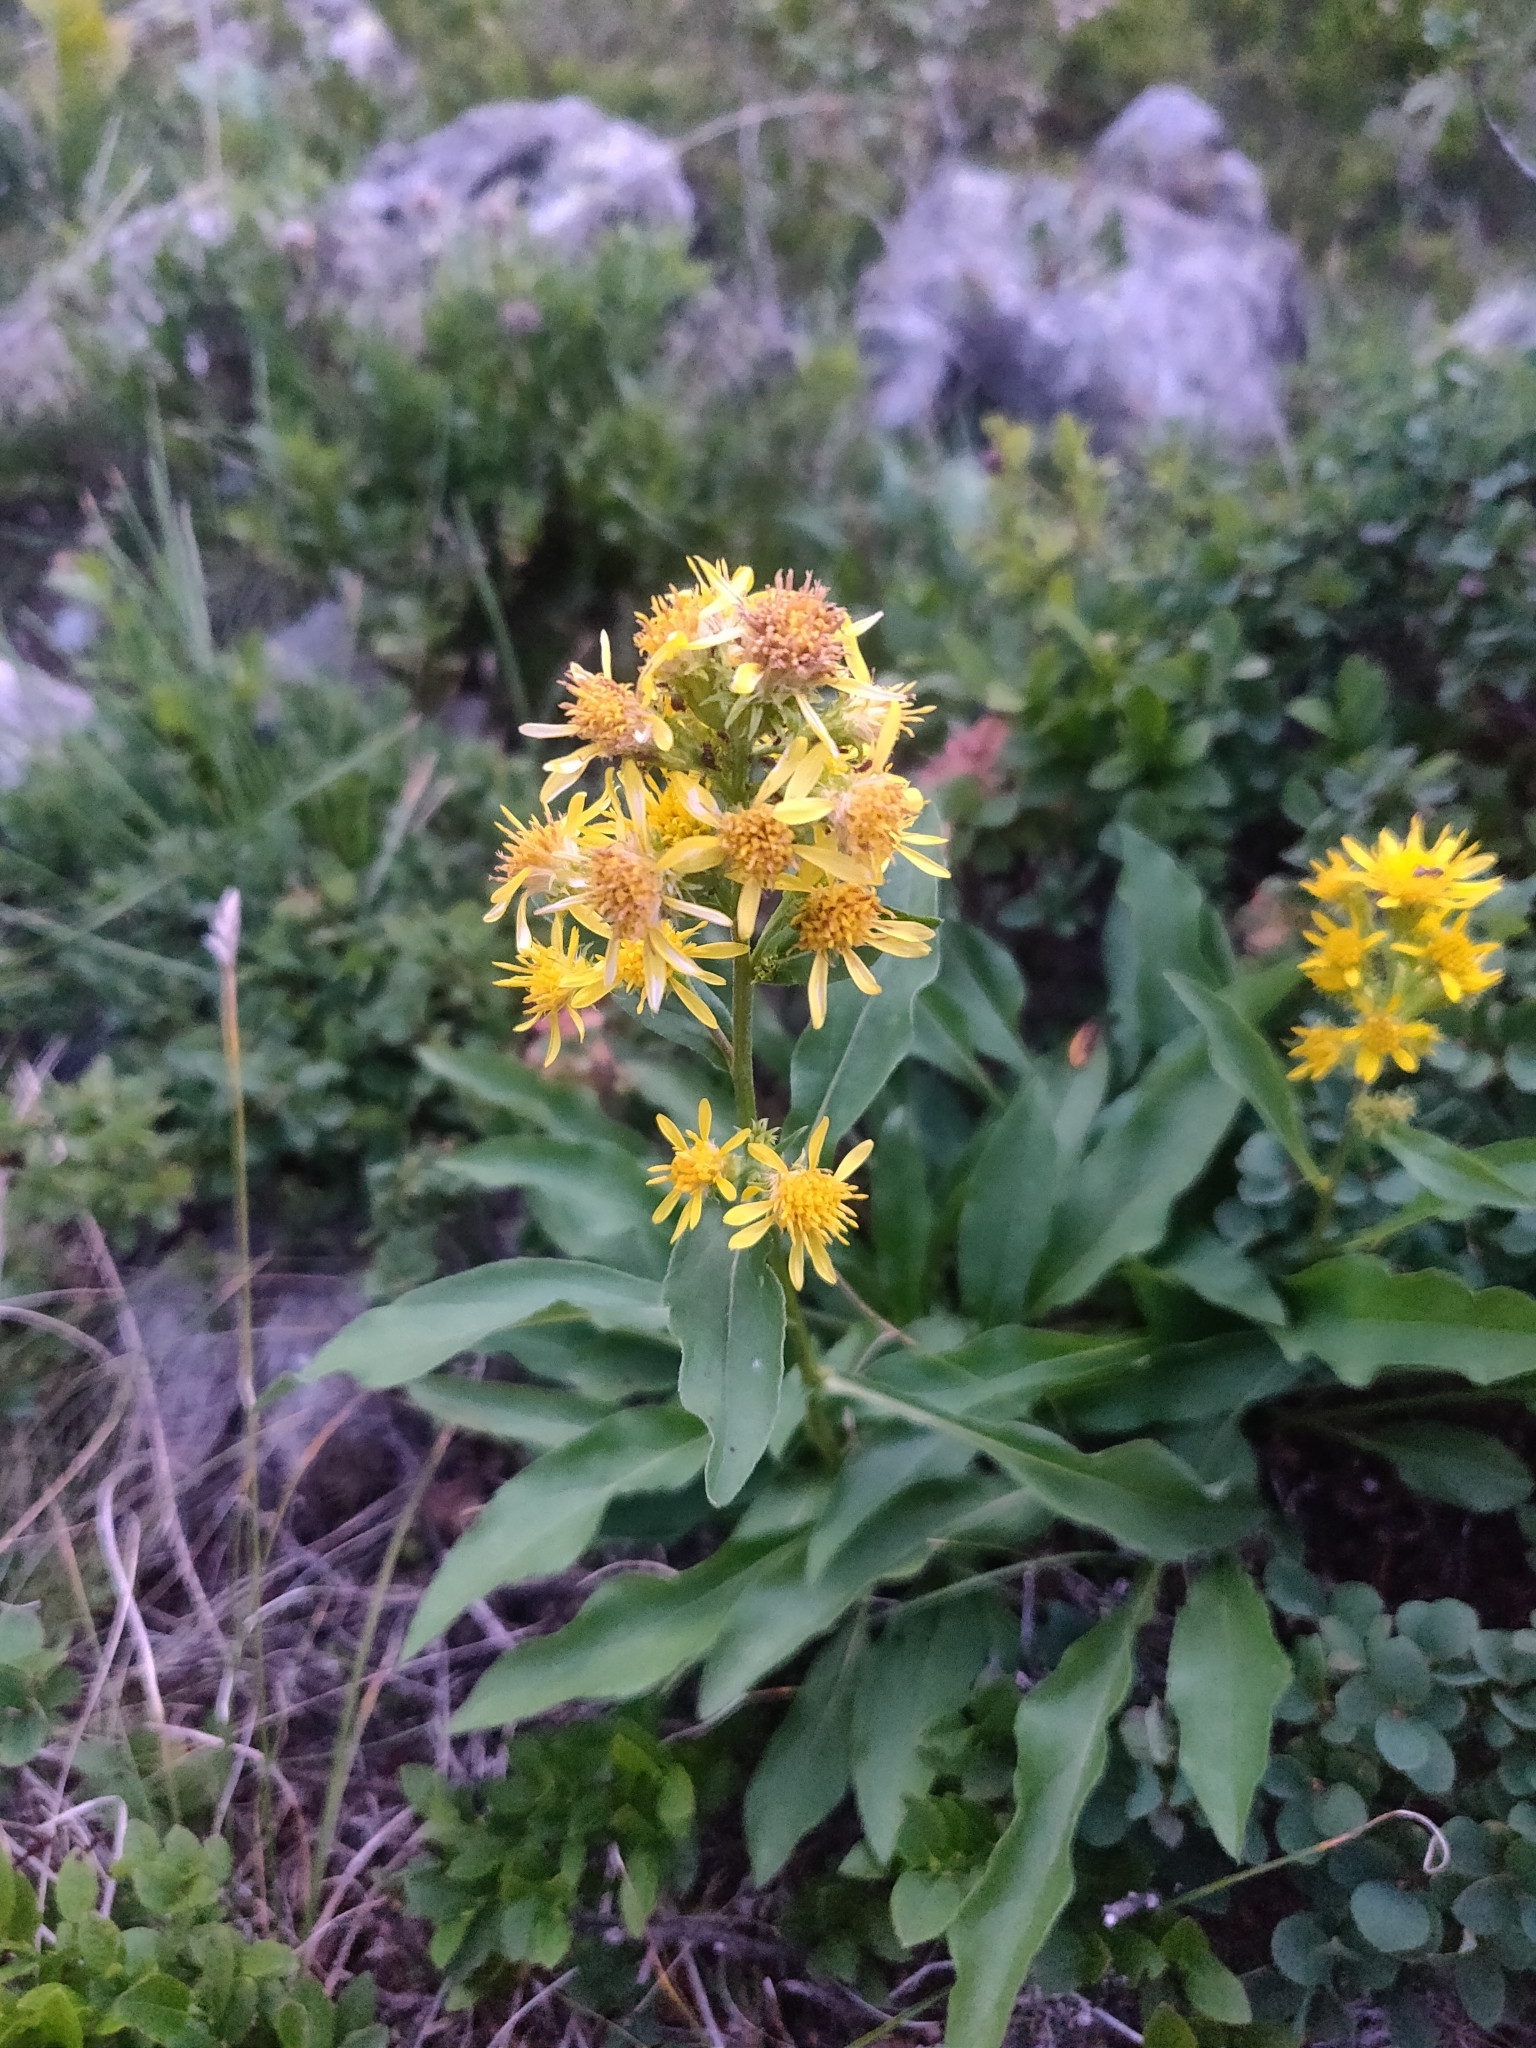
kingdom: Plantae
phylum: Tracheophyta
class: Magnoliopsida
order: Asterales
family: Asteraceae
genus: Solidago
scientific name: Solidago virgaurea
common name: Goldenrod
